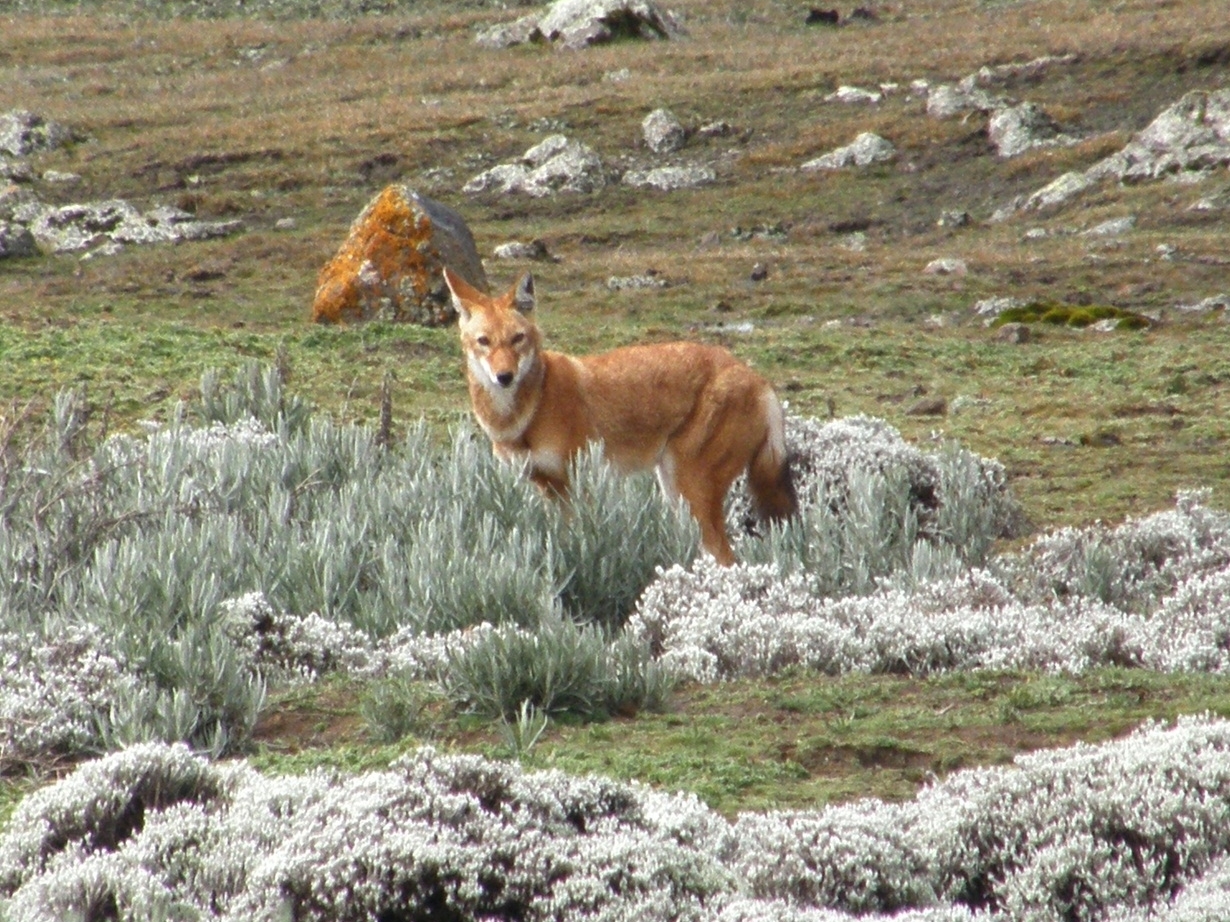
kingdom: Animalia
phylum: Chordata
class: Mammalia
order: Carnivora
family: Canidae
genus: Canis
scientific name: Canis simensis
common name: Ethiopian wolf
